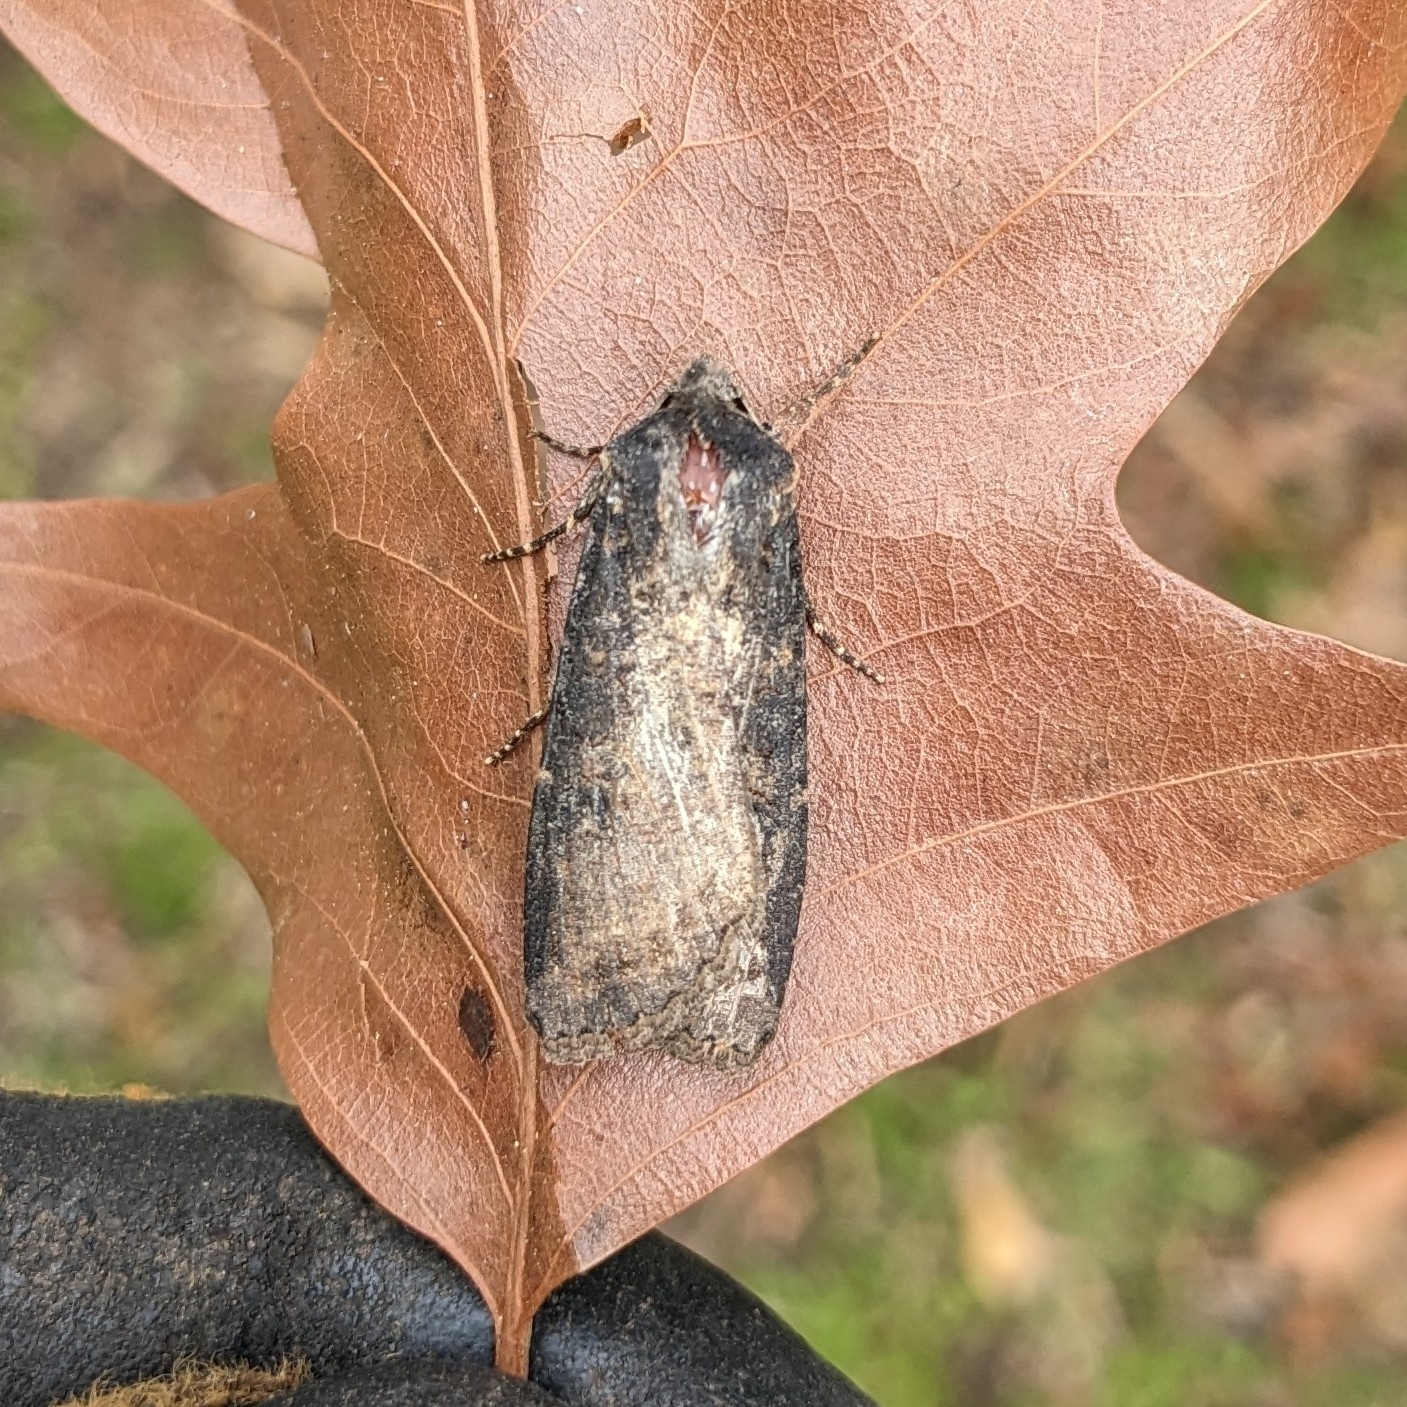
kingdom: Animalia
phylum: Arthropoda
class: Insecta
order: Lepidoptera
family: Noctuidae
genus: Peridroma
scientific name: Peridroma saucia
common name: Pearly underwing
